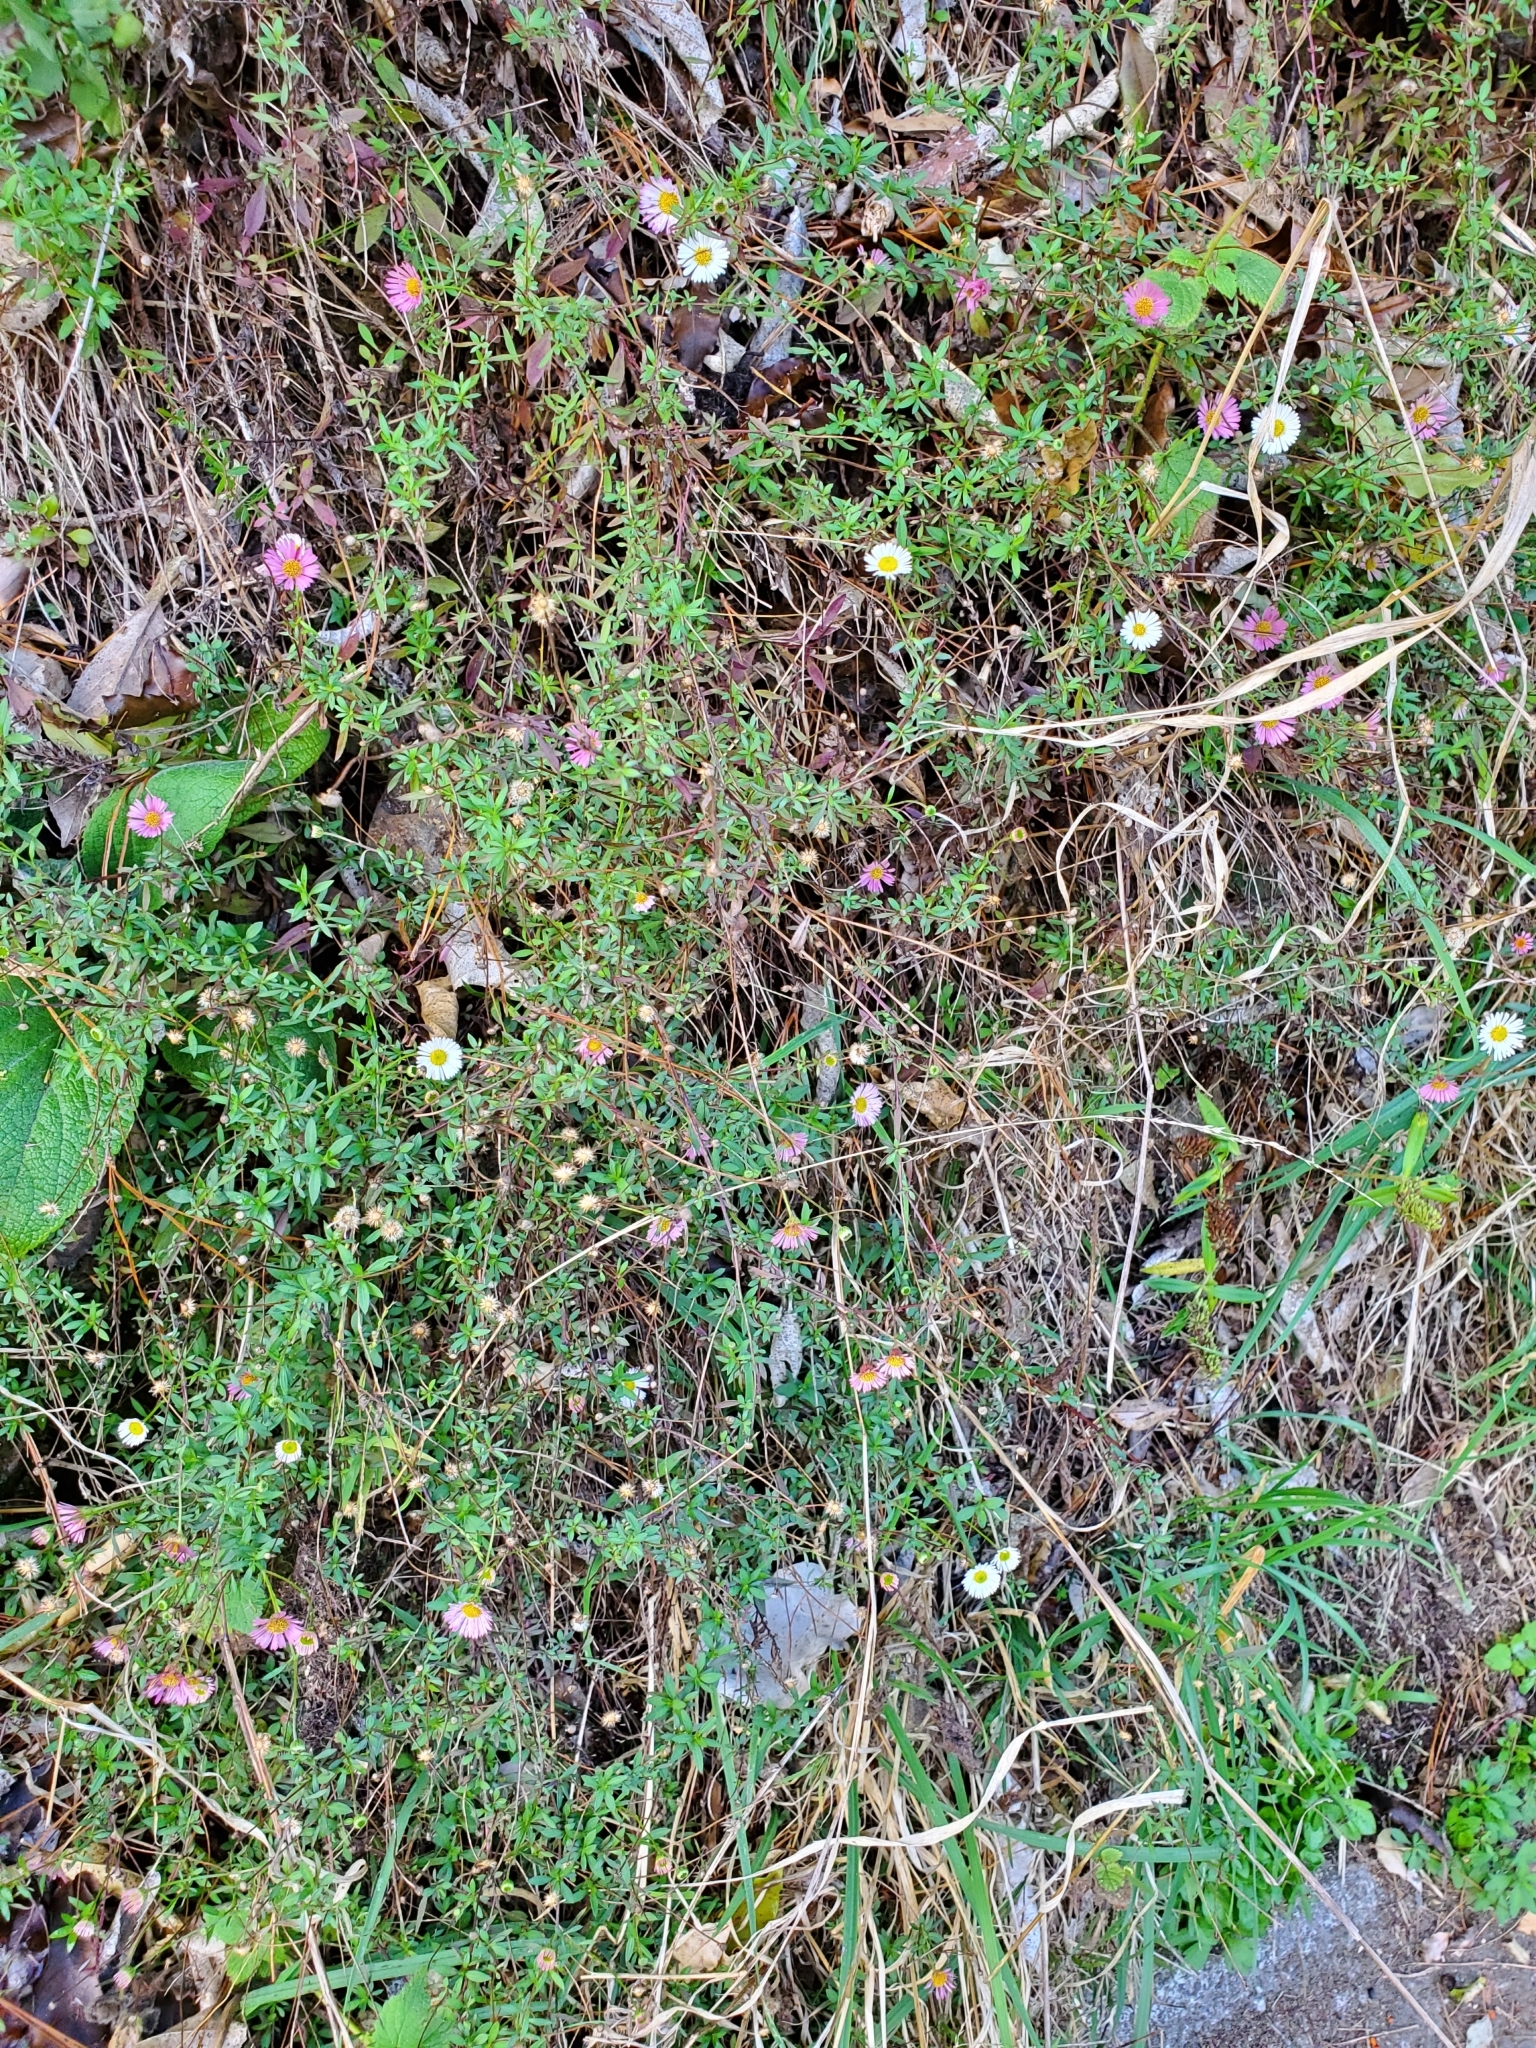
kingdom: Plantae
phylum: Tracheophyta
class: Magnoliopsida
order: Asterales
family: Asteraceae
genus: Erigeron
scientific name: Erigeron karvinskianus
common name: Mexican fleabane
